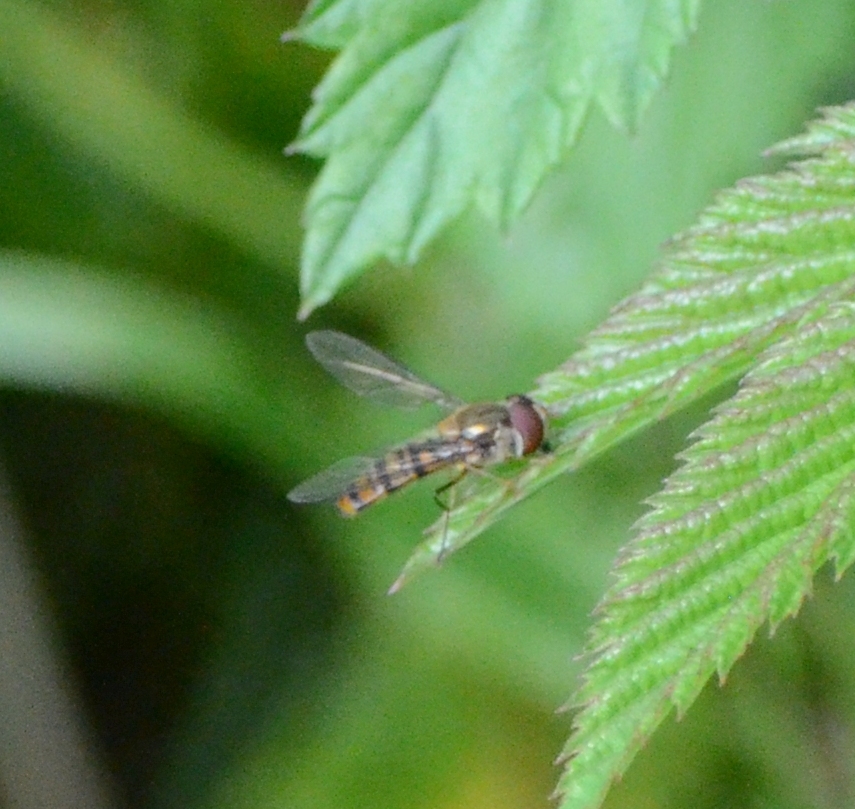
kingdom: Animalia
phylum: Arthropoda
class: Insecta
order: Diptera
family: Syrphidae
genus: Episyrphus
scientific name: Episyrphus balteatus
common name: Marmalade hoverfly
